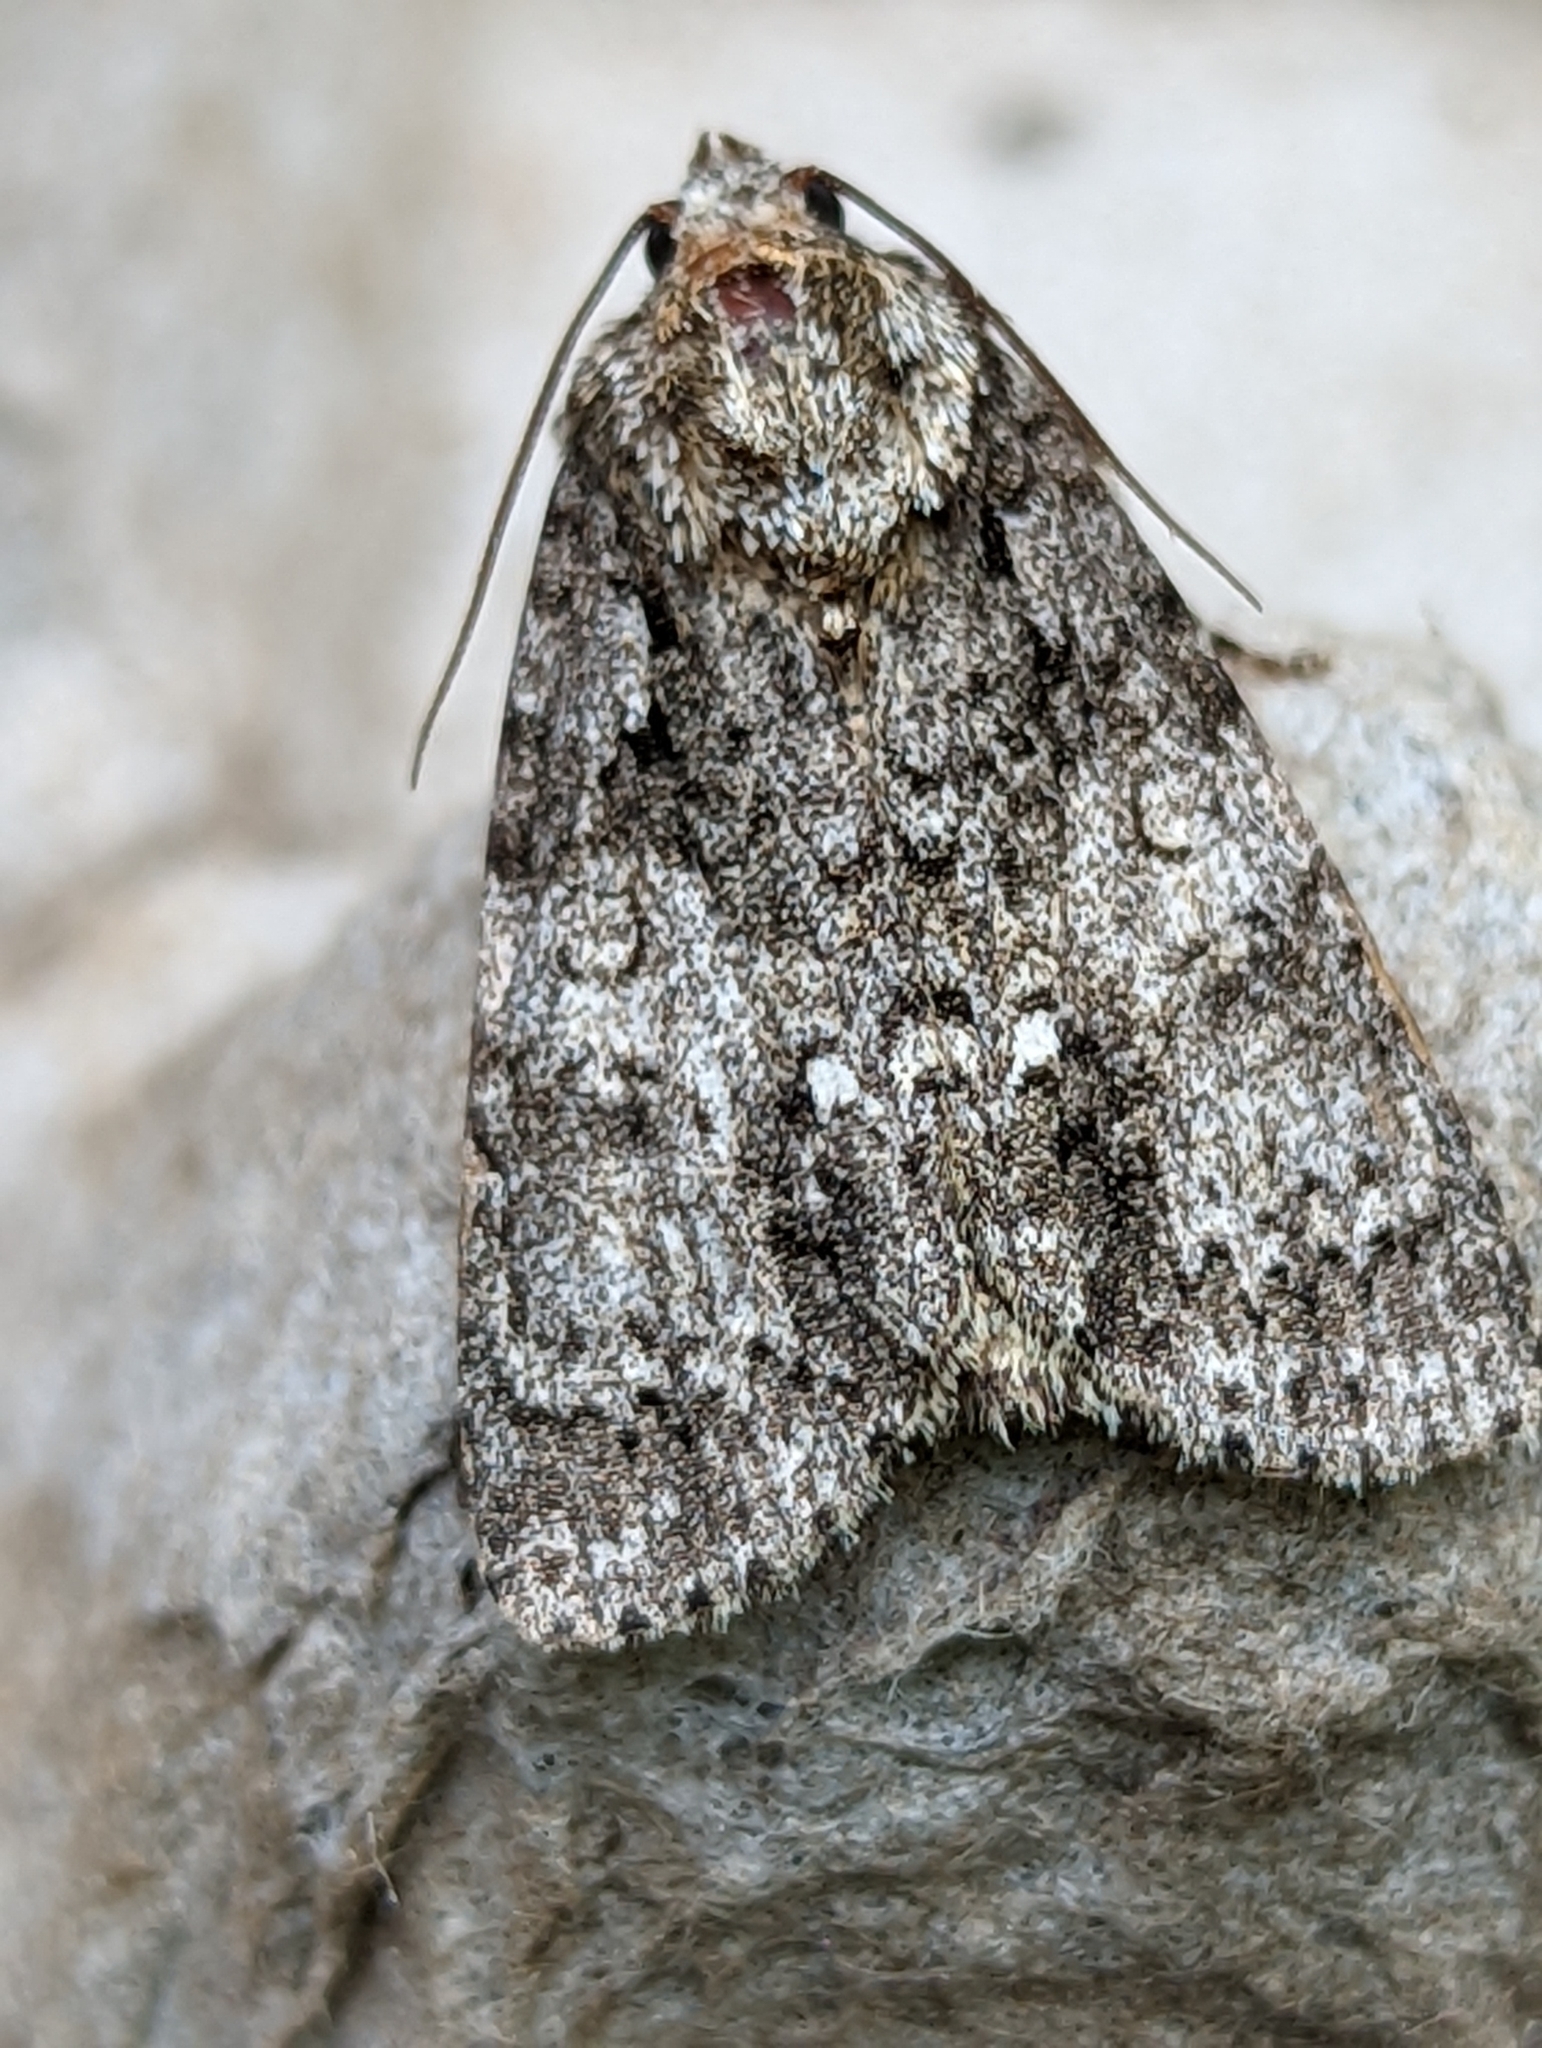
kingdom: Animalia
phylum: Arthropoda
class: Insecta
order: Lepidoptera
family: Noctuidae
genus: Acronicta
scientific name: Acronicta rumicis
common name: Knot grass
